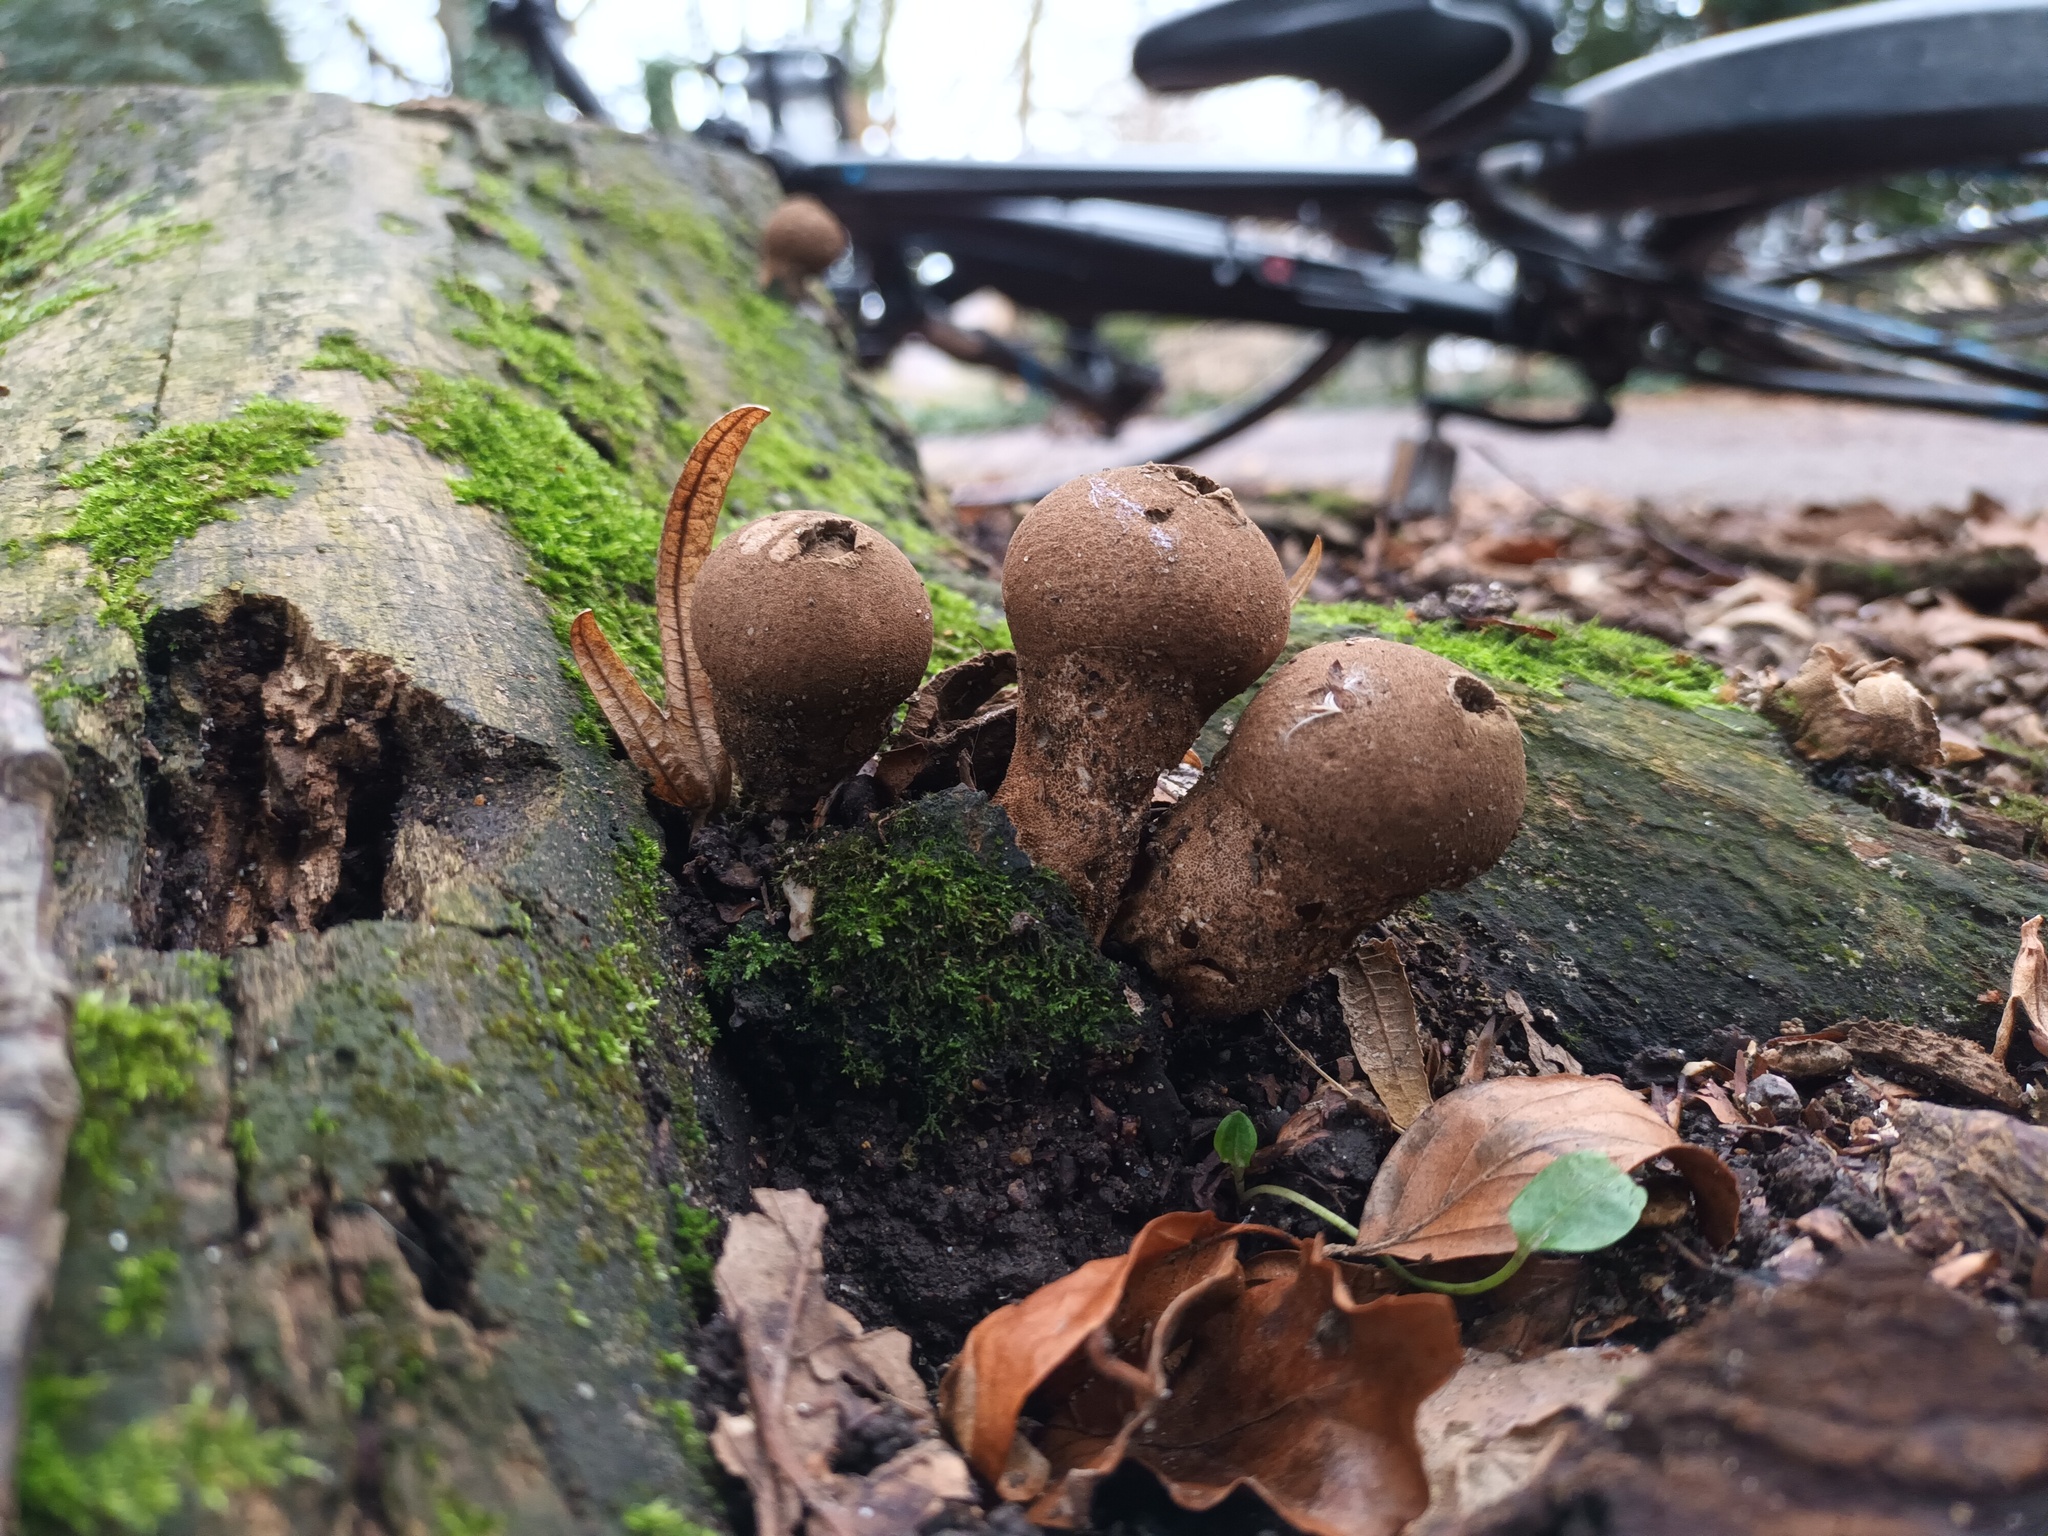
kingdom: Fungi
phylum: Basidiomycota
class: Agaricomycetes
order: Agaricales
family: Lycoperdaceae
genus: Apioperdon
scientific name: Apioperdon pyriforme
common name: Pear-shaped puffball
